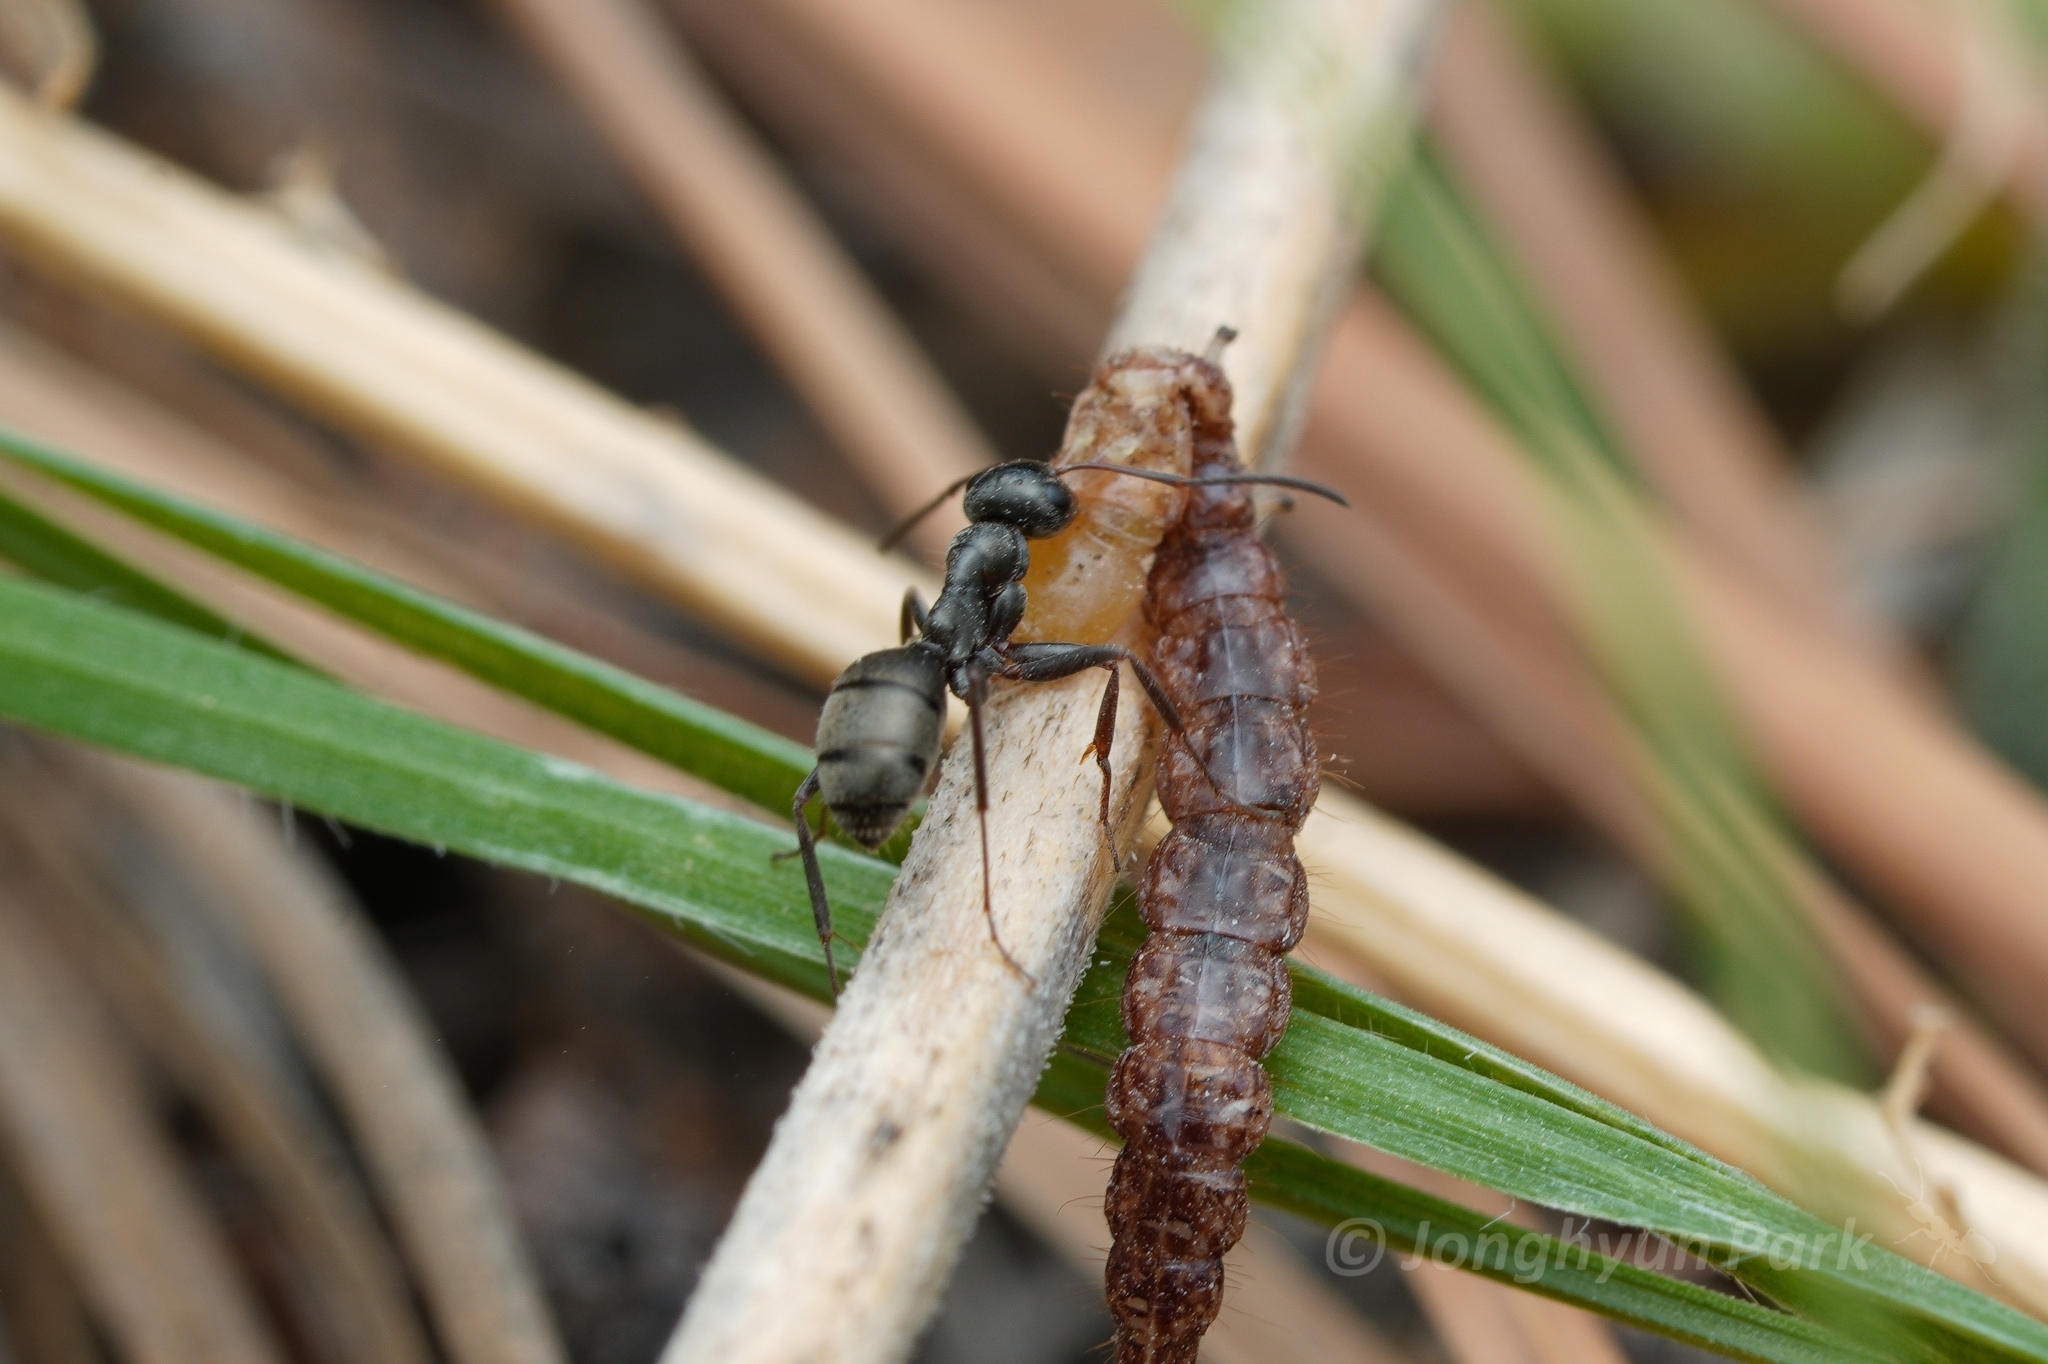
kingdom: Animalia
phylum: Arthropoda
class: Insecta
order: Hymenoptera
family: Formicidae
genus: Formica
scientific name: Formica occulta
